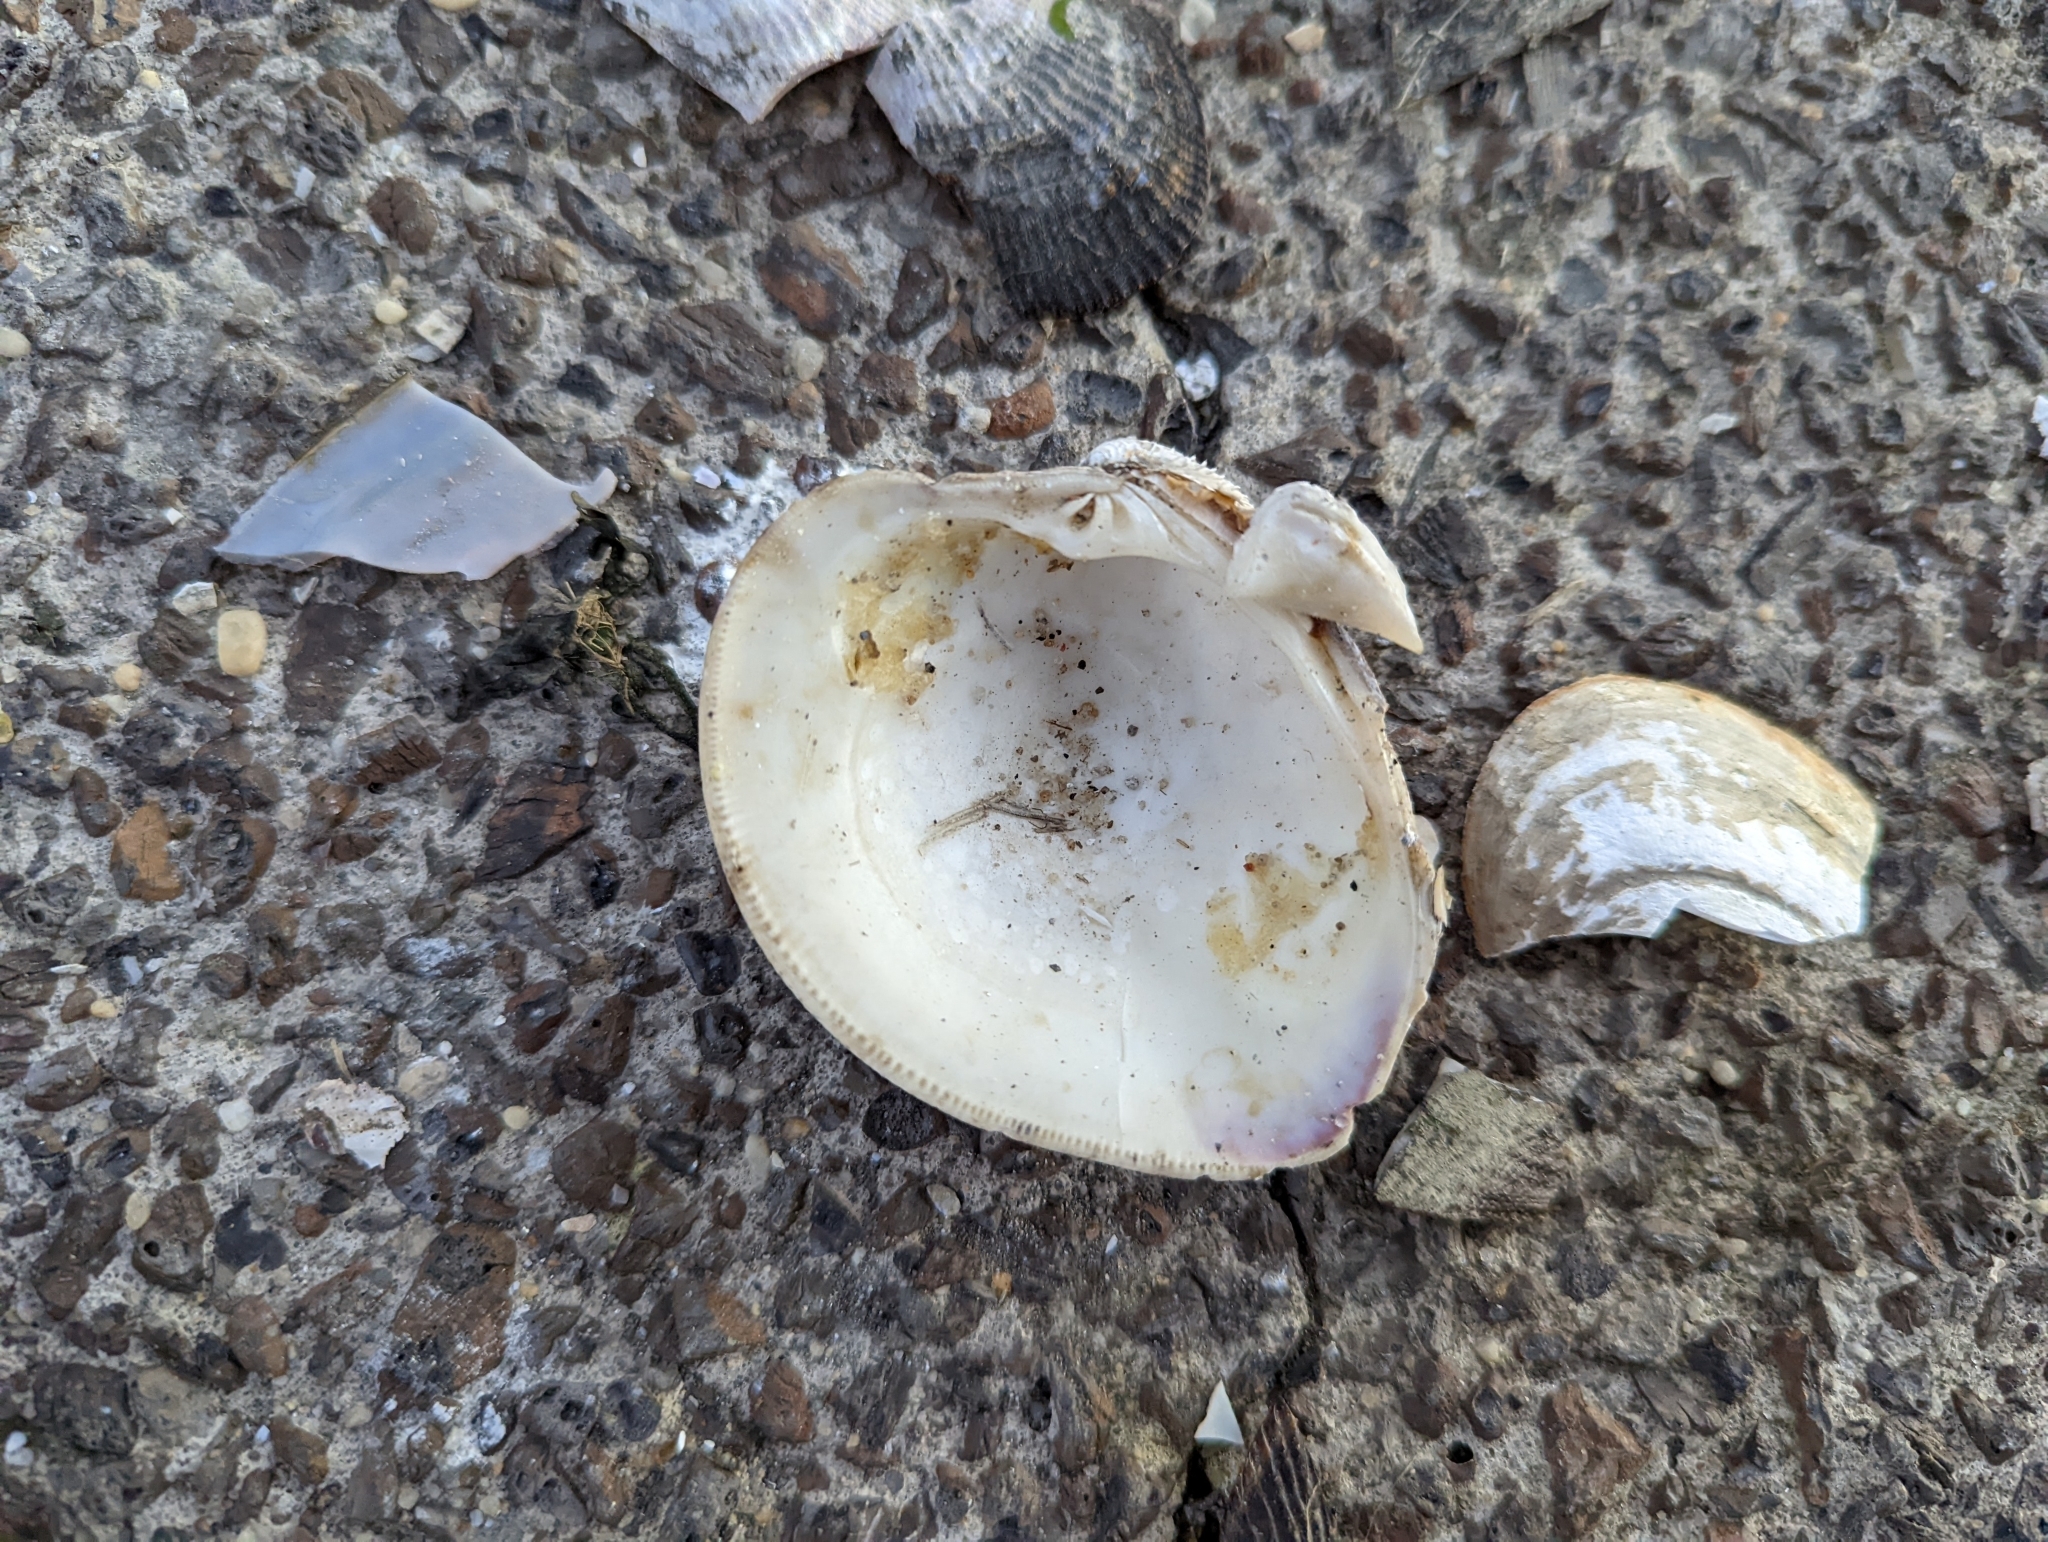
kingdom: Animalia
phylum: Mollusca
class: Bivalvia
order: Venerida
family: Veneridae
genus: Mercenaria
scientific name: Mercenaria mercenaria
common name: American hard-shelled clam
